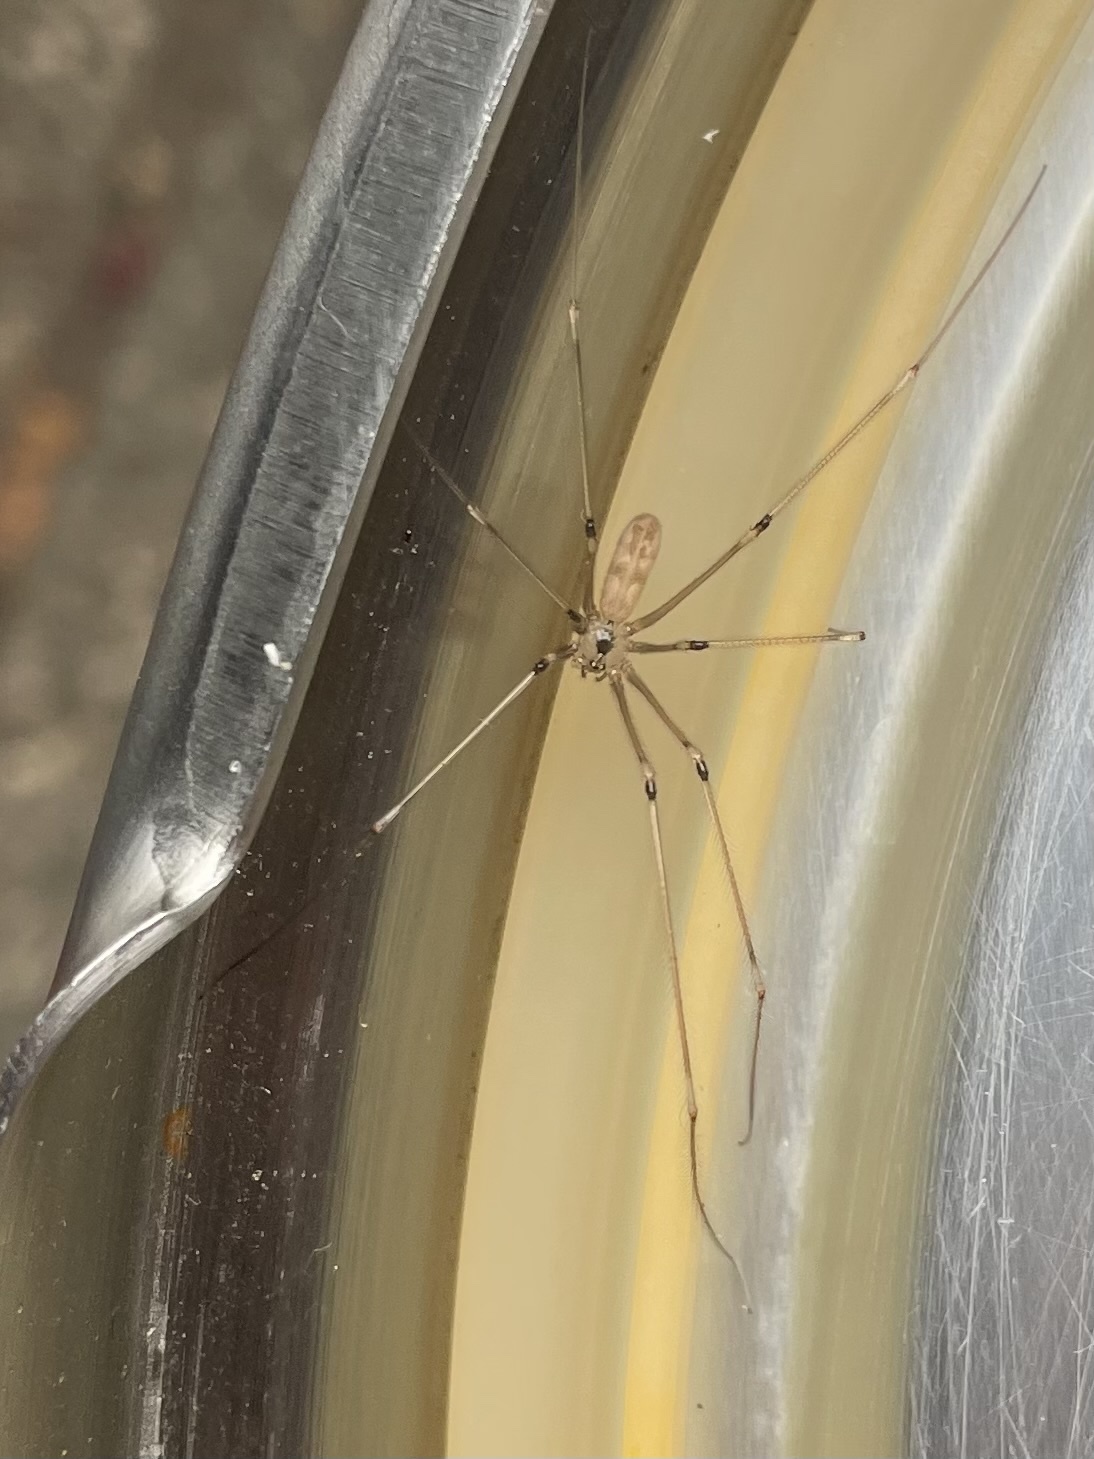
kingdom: Animalia
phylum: Arthropoda
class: Arachnida
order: Araneae
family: Pholcidae
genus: Pholcus
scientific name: Pholcus phalangioides
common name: Longbodied cellar spider
